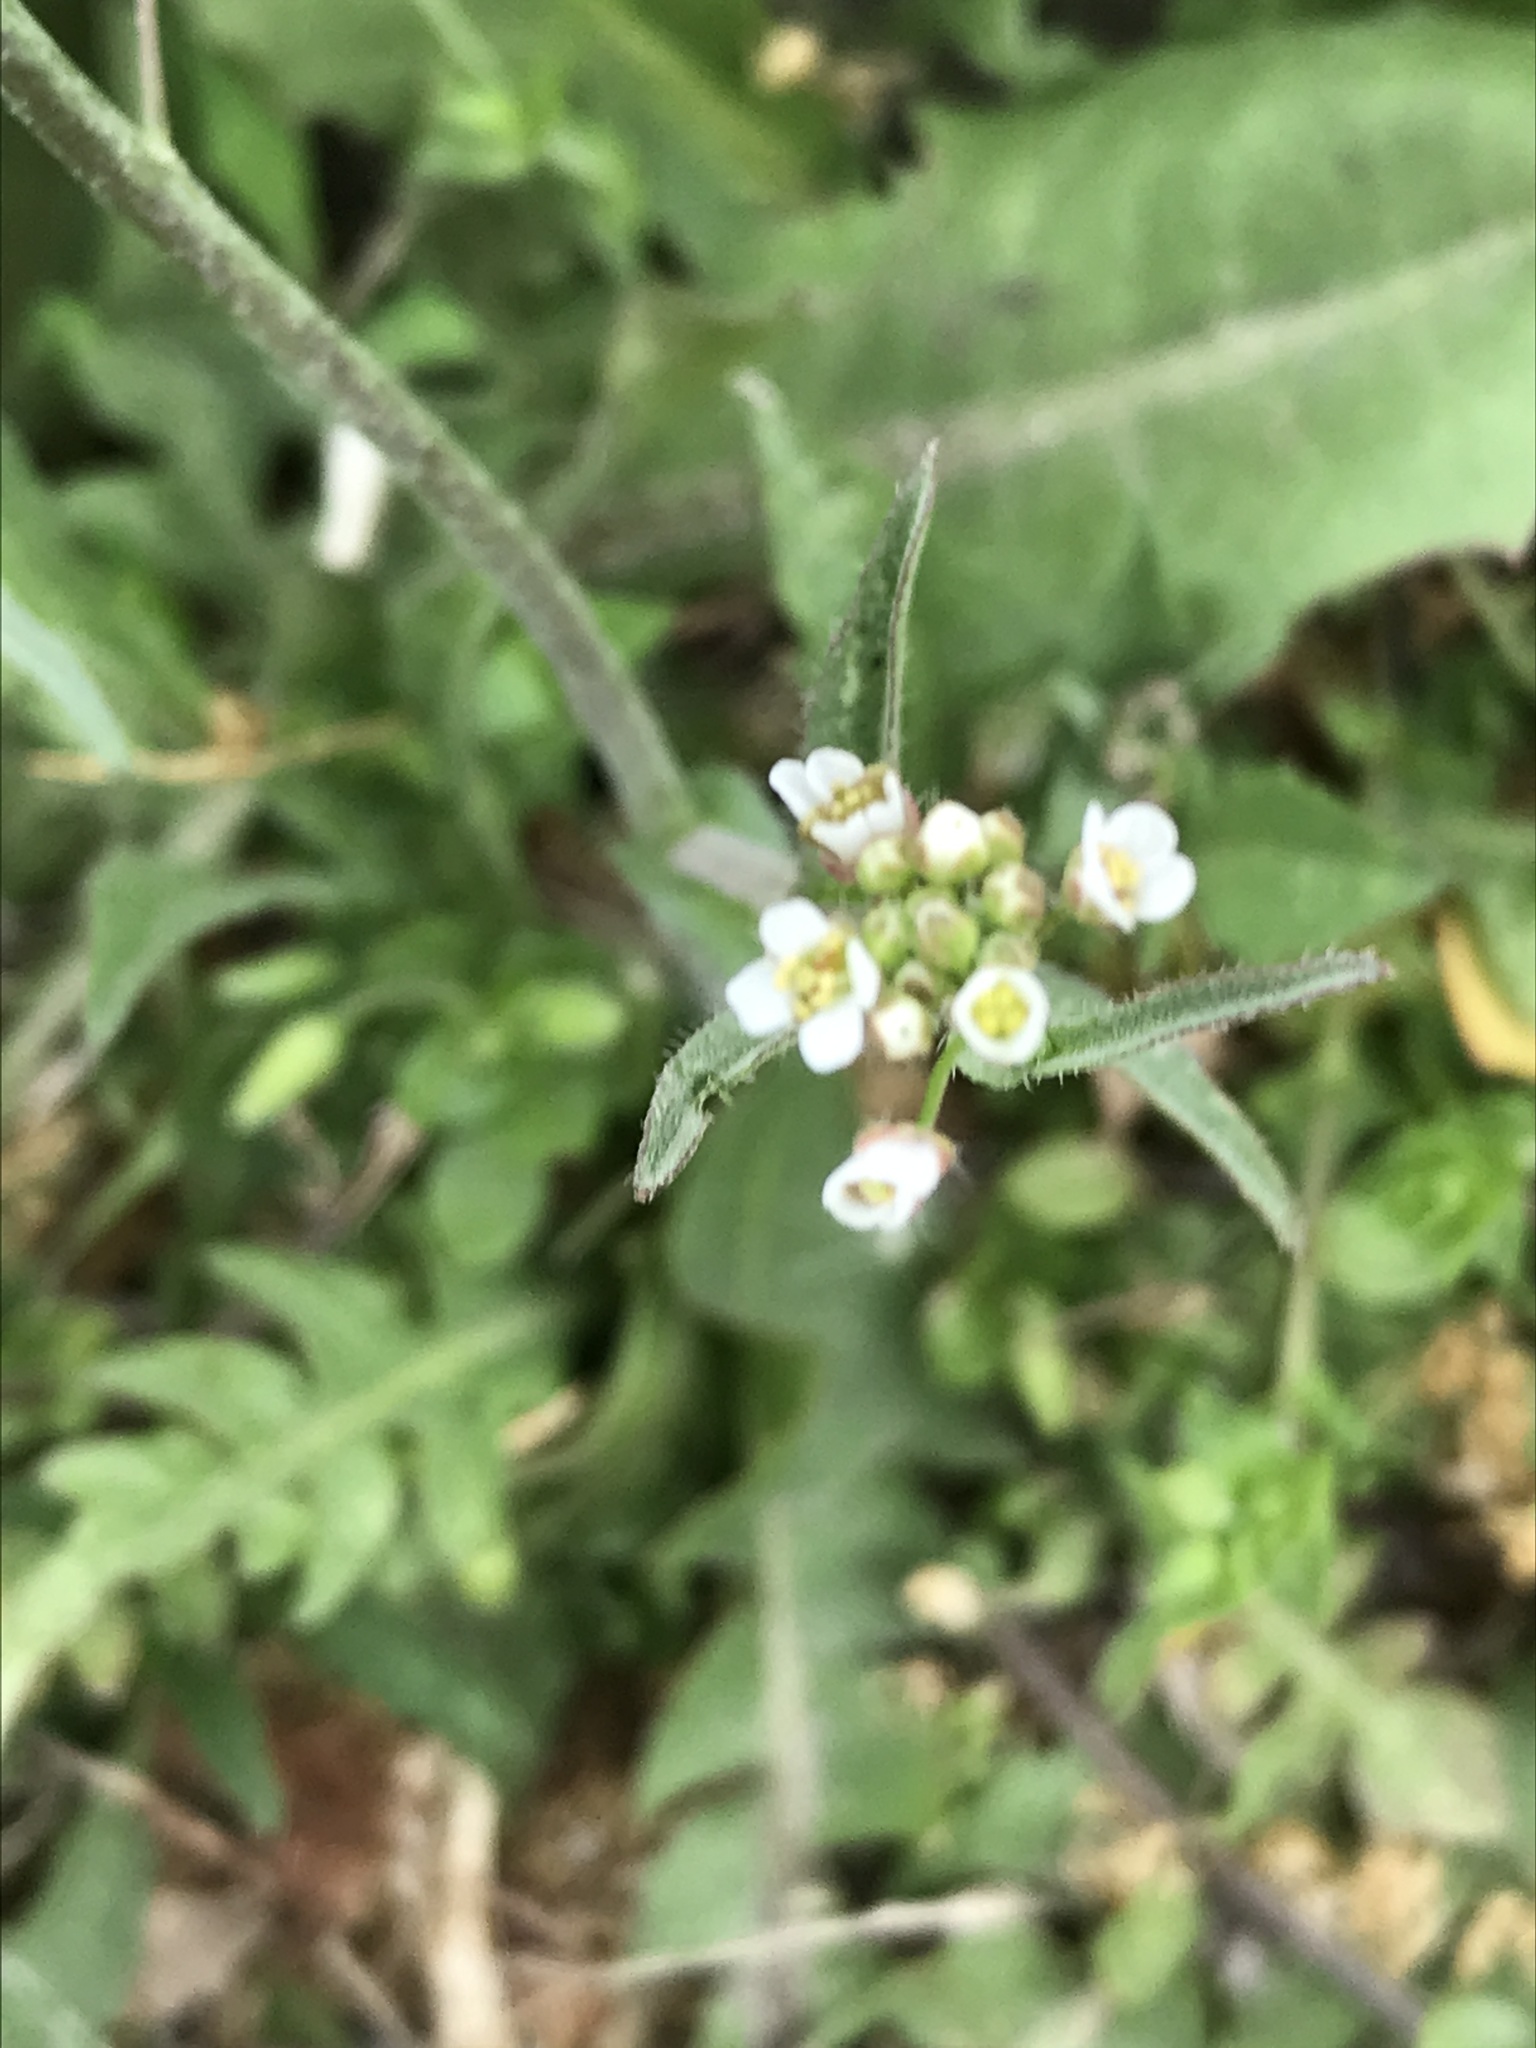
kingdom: Plantae
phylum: Tracheophyta
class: Magnoliopsida
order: Brassicales
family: Brassicaceae
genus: Capsella
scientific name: Capsella bursa-pastoris
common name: Shepherd's purse
